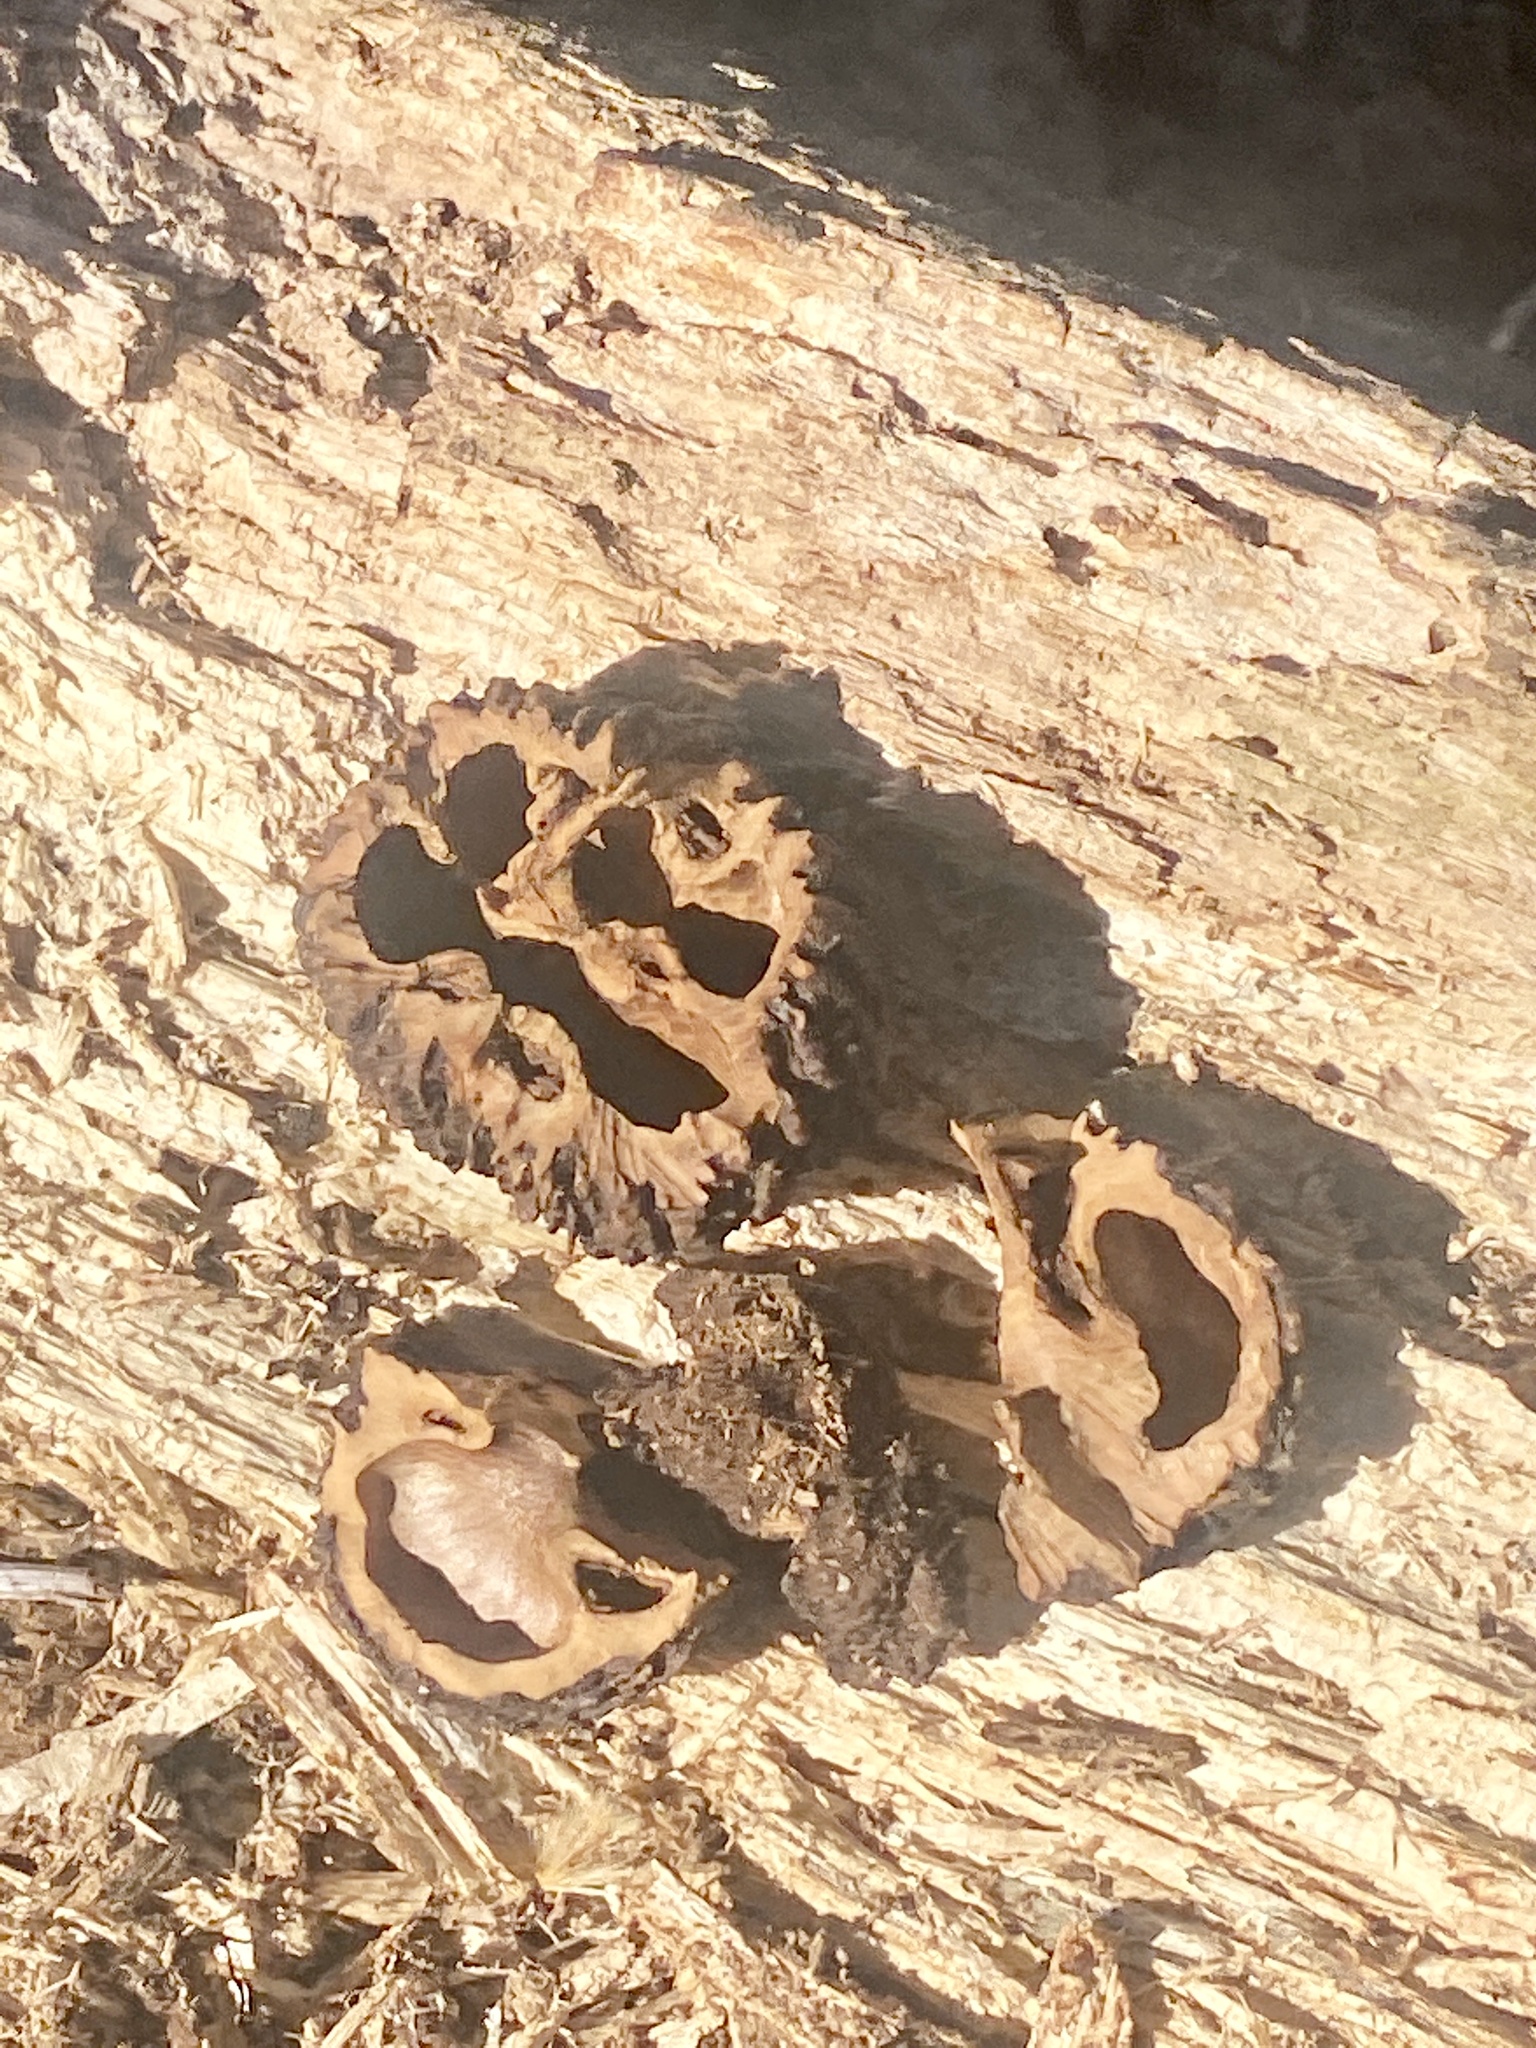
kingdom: Plantae
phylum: Tracheophyta
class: Magnoliopsida
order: Fagales
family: Juglandaceae
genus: Juglans
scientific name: Juglans nigra
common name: Black walnut
